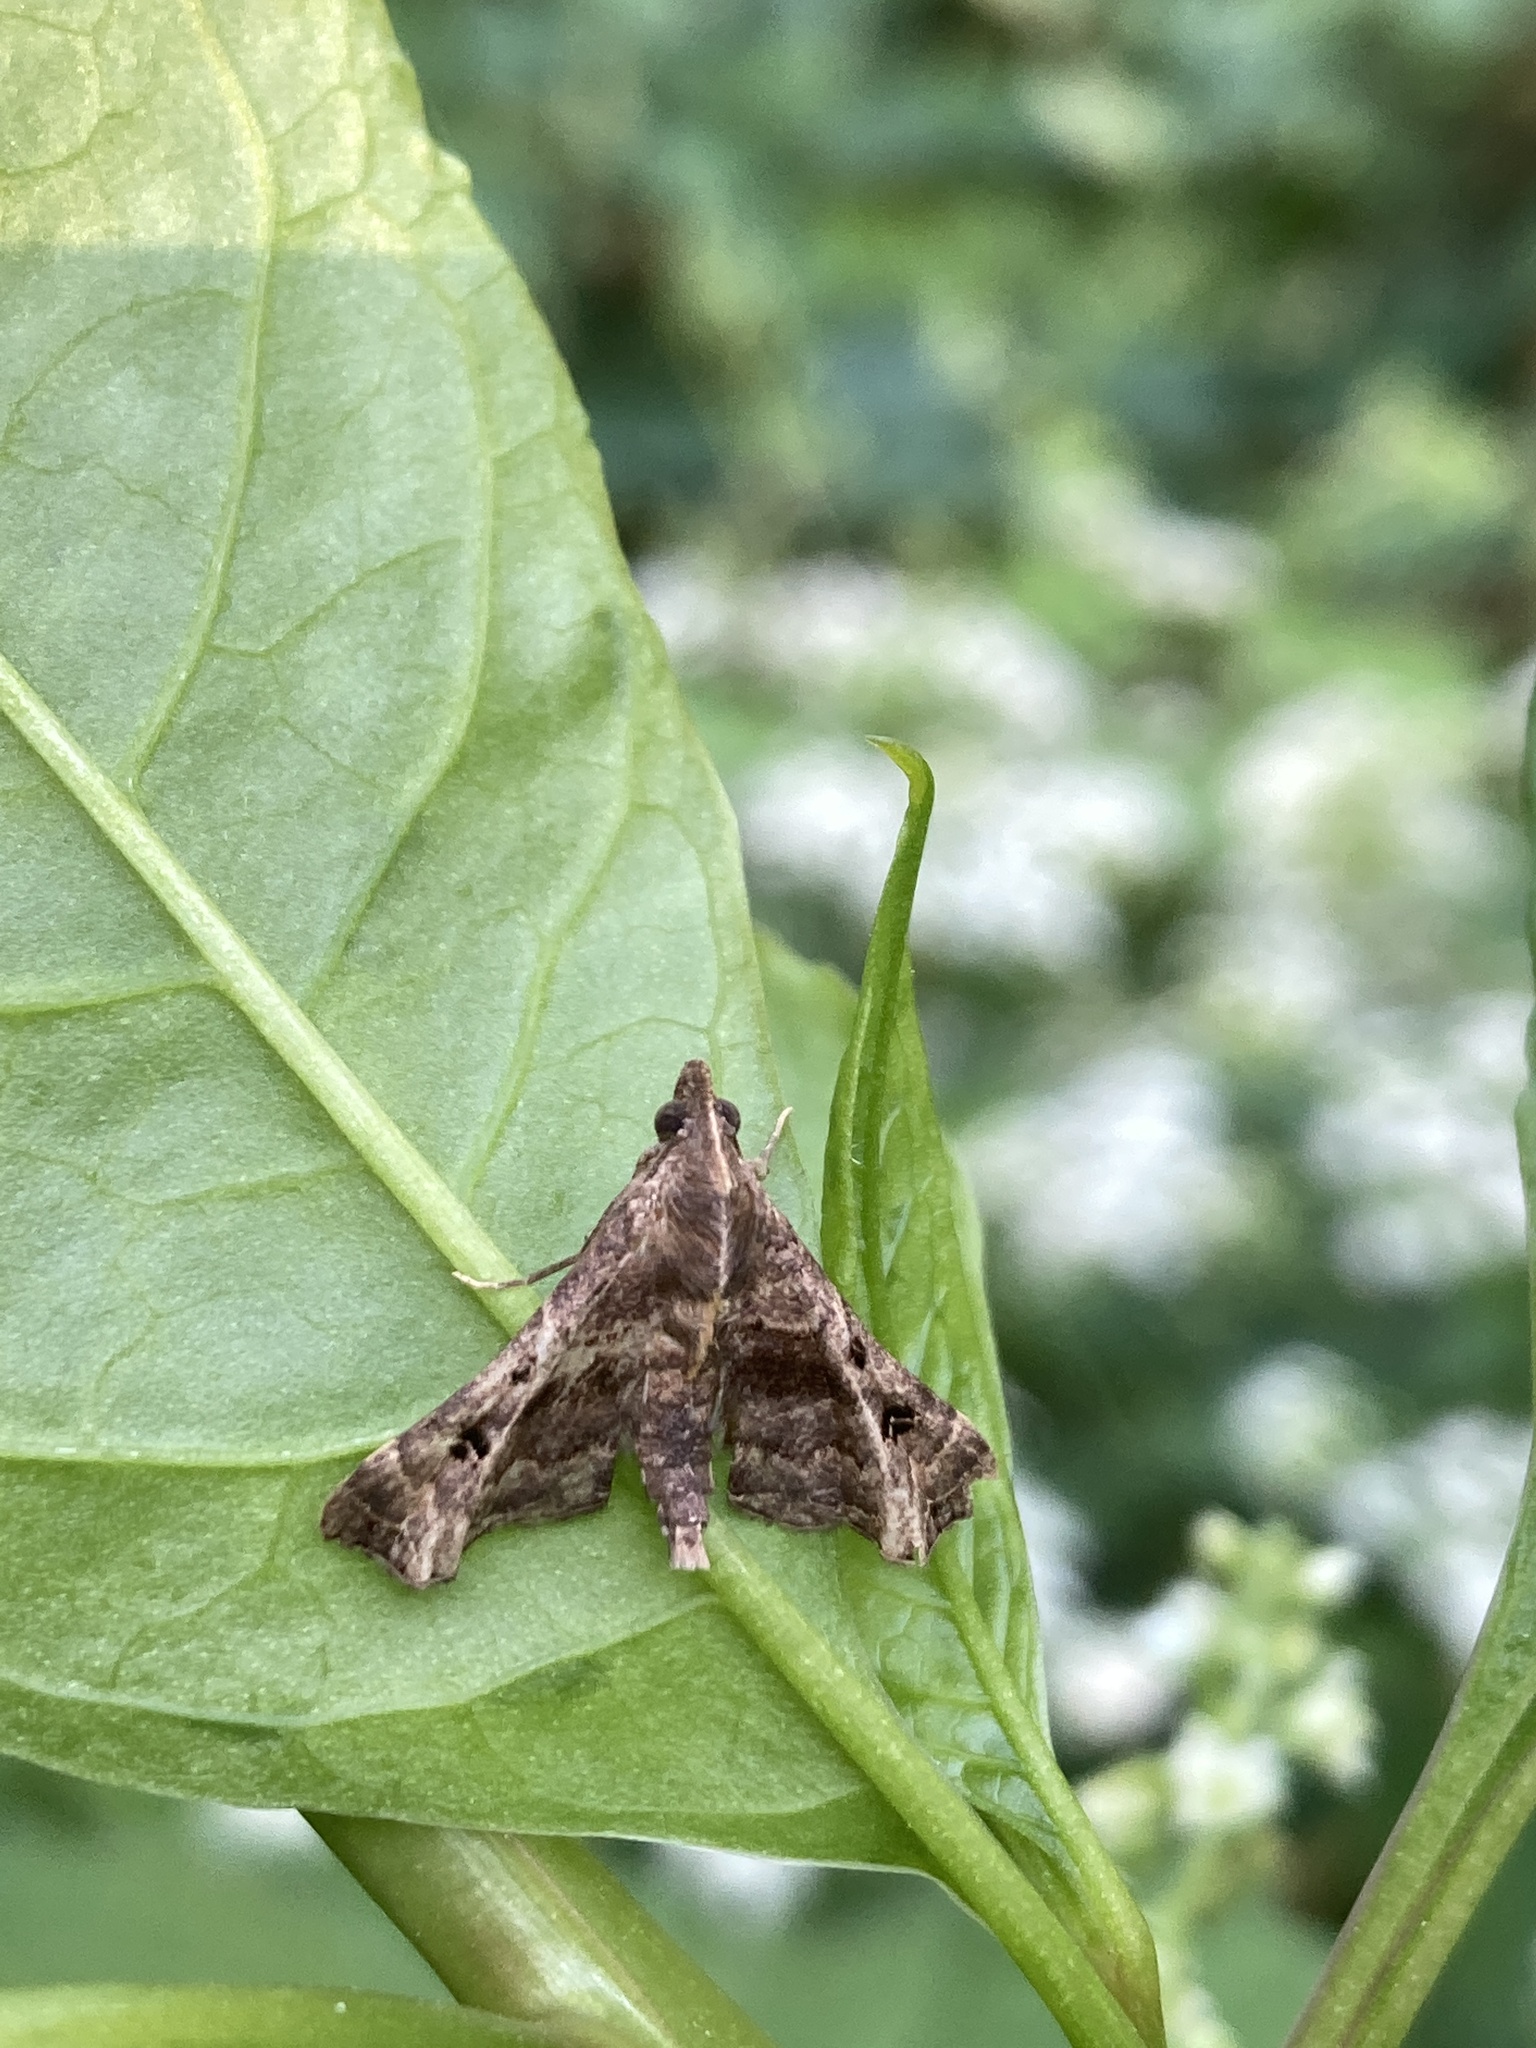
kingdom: Animalia
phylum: Arthropoda
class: Insecta
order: Lepidoptera
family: Erebidae
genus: Palthis
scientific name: Palthis asopialis
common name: Faint-spotted palthis moth
